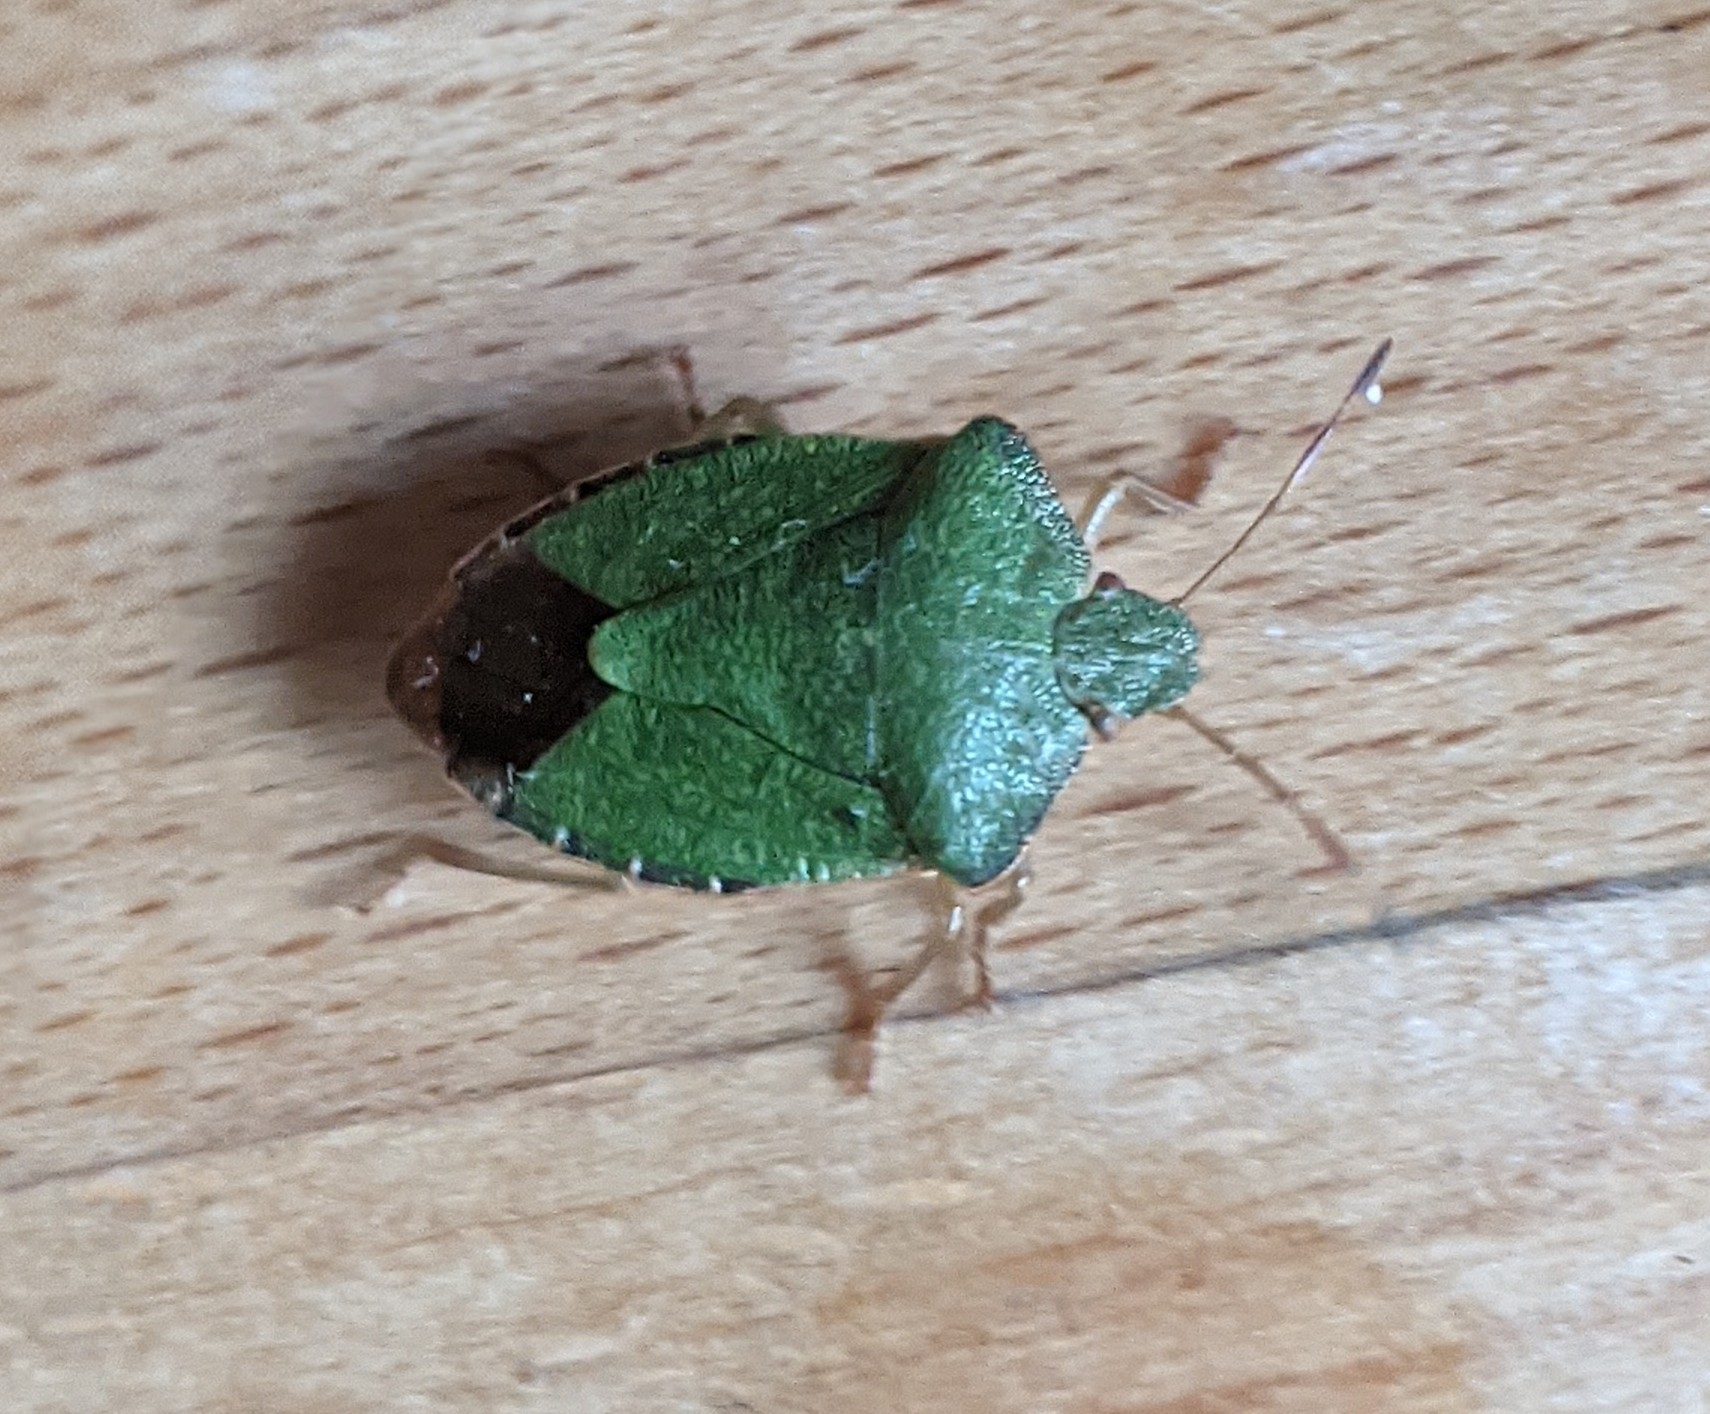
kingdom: Animalia
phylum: Arthropoda
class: Insecta
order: Hemiptera
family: Pentatomidae
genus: Palomena
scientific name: Palomena prasina
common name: Green shieldbug
